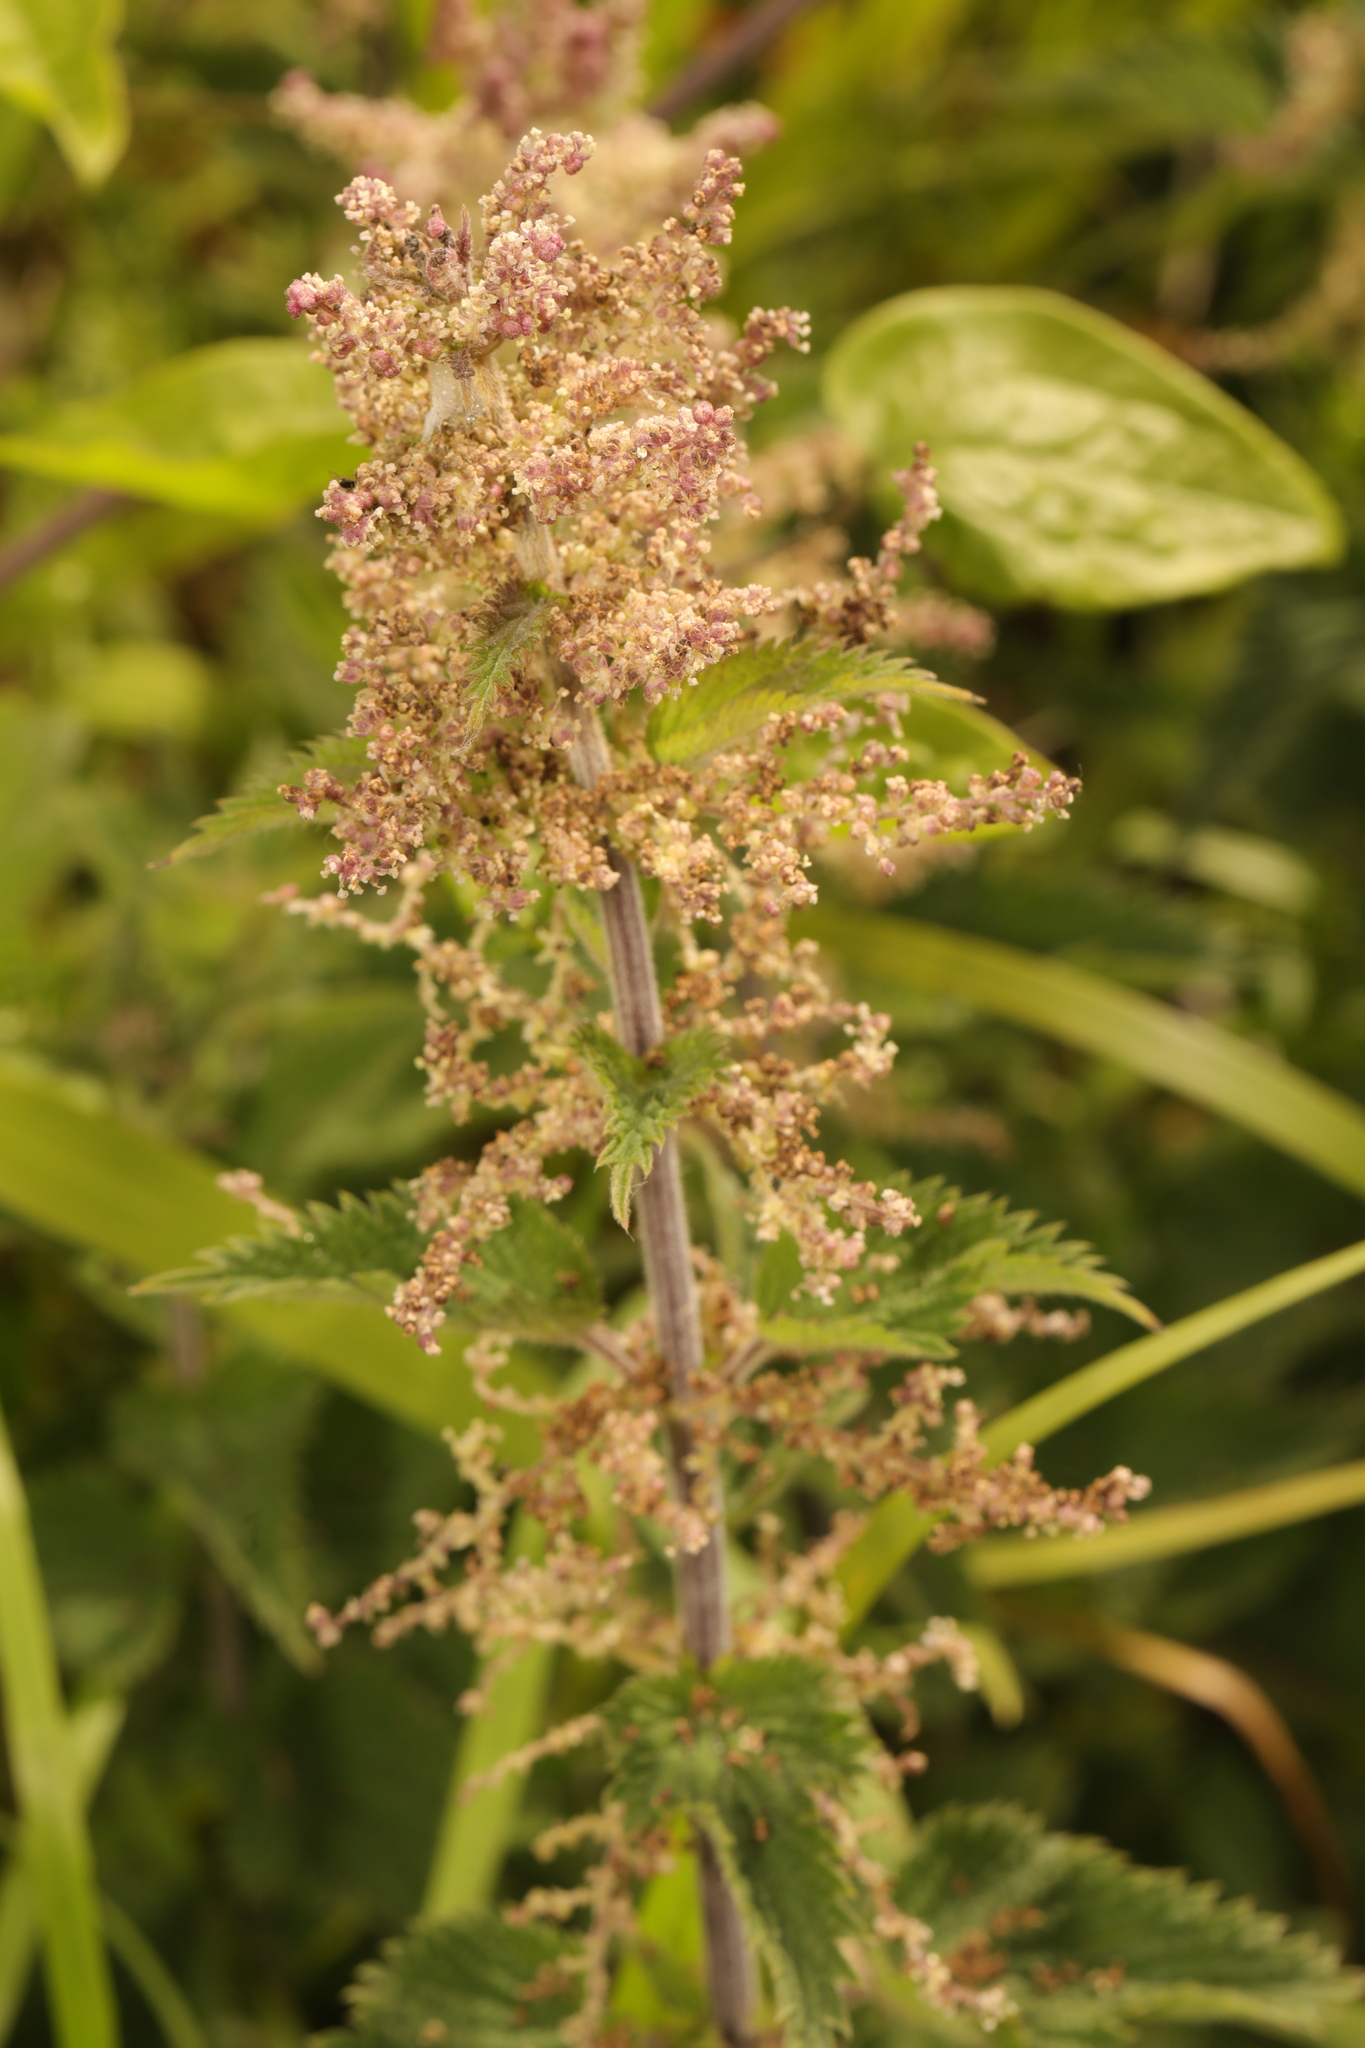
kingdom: Plantae
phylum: Tracheophyta
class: Magnoliopsida
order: Rosales
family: Urticaceae
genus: Urtica
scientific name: Urtica dioica
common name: Common nettle
